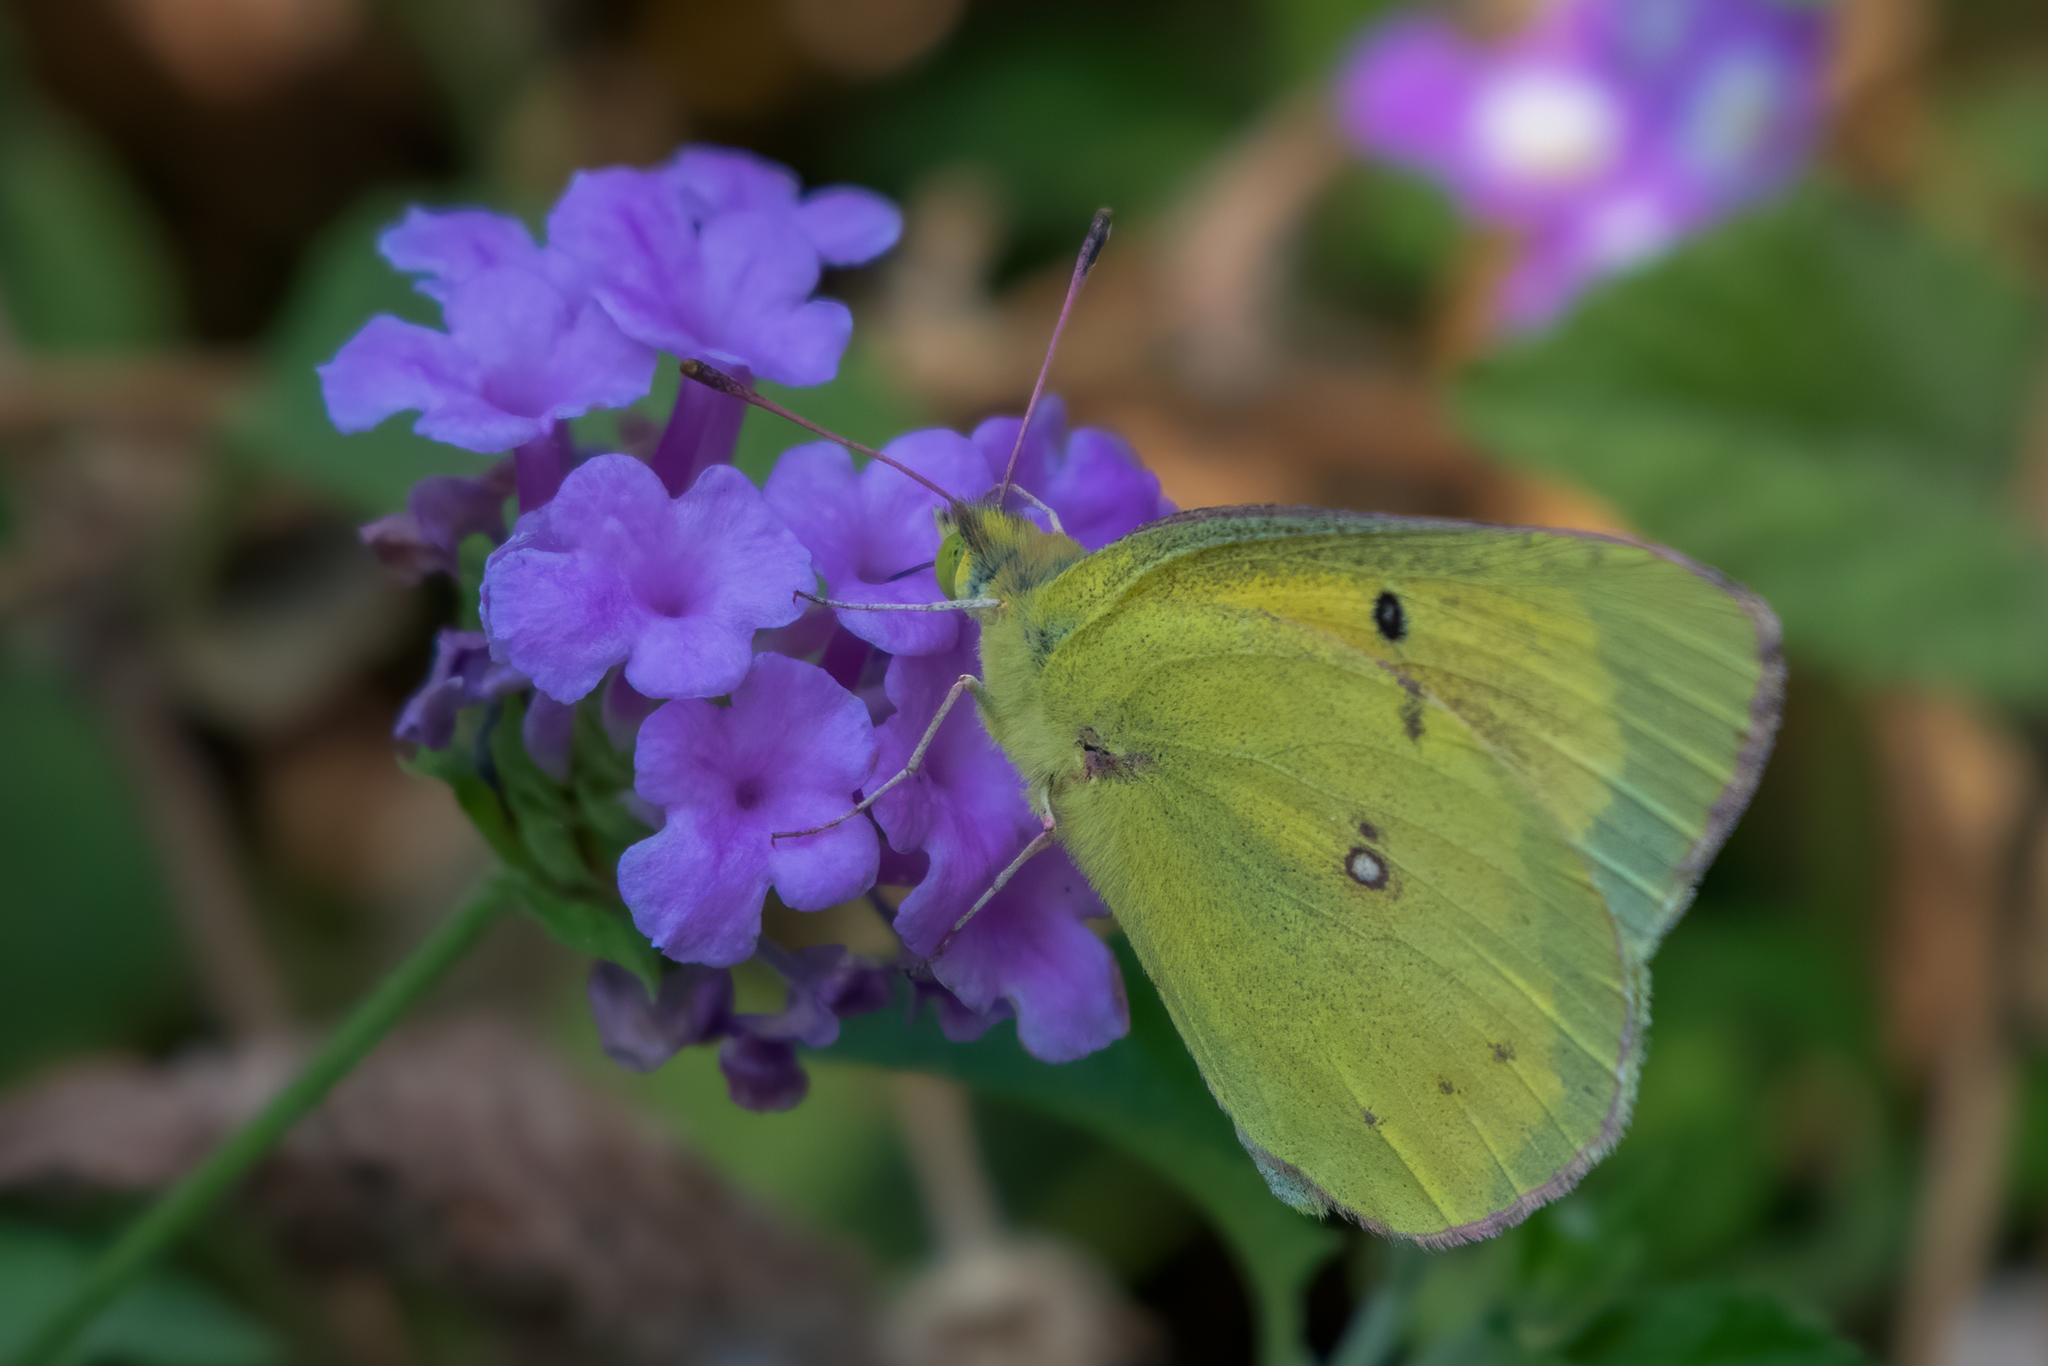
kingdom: Animalia
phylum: Arthropoda
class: Insecta
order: Lepidoptera
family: Pieridae
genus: Colias
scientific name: Colias eurytheme
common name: Alfalfa butterfly
